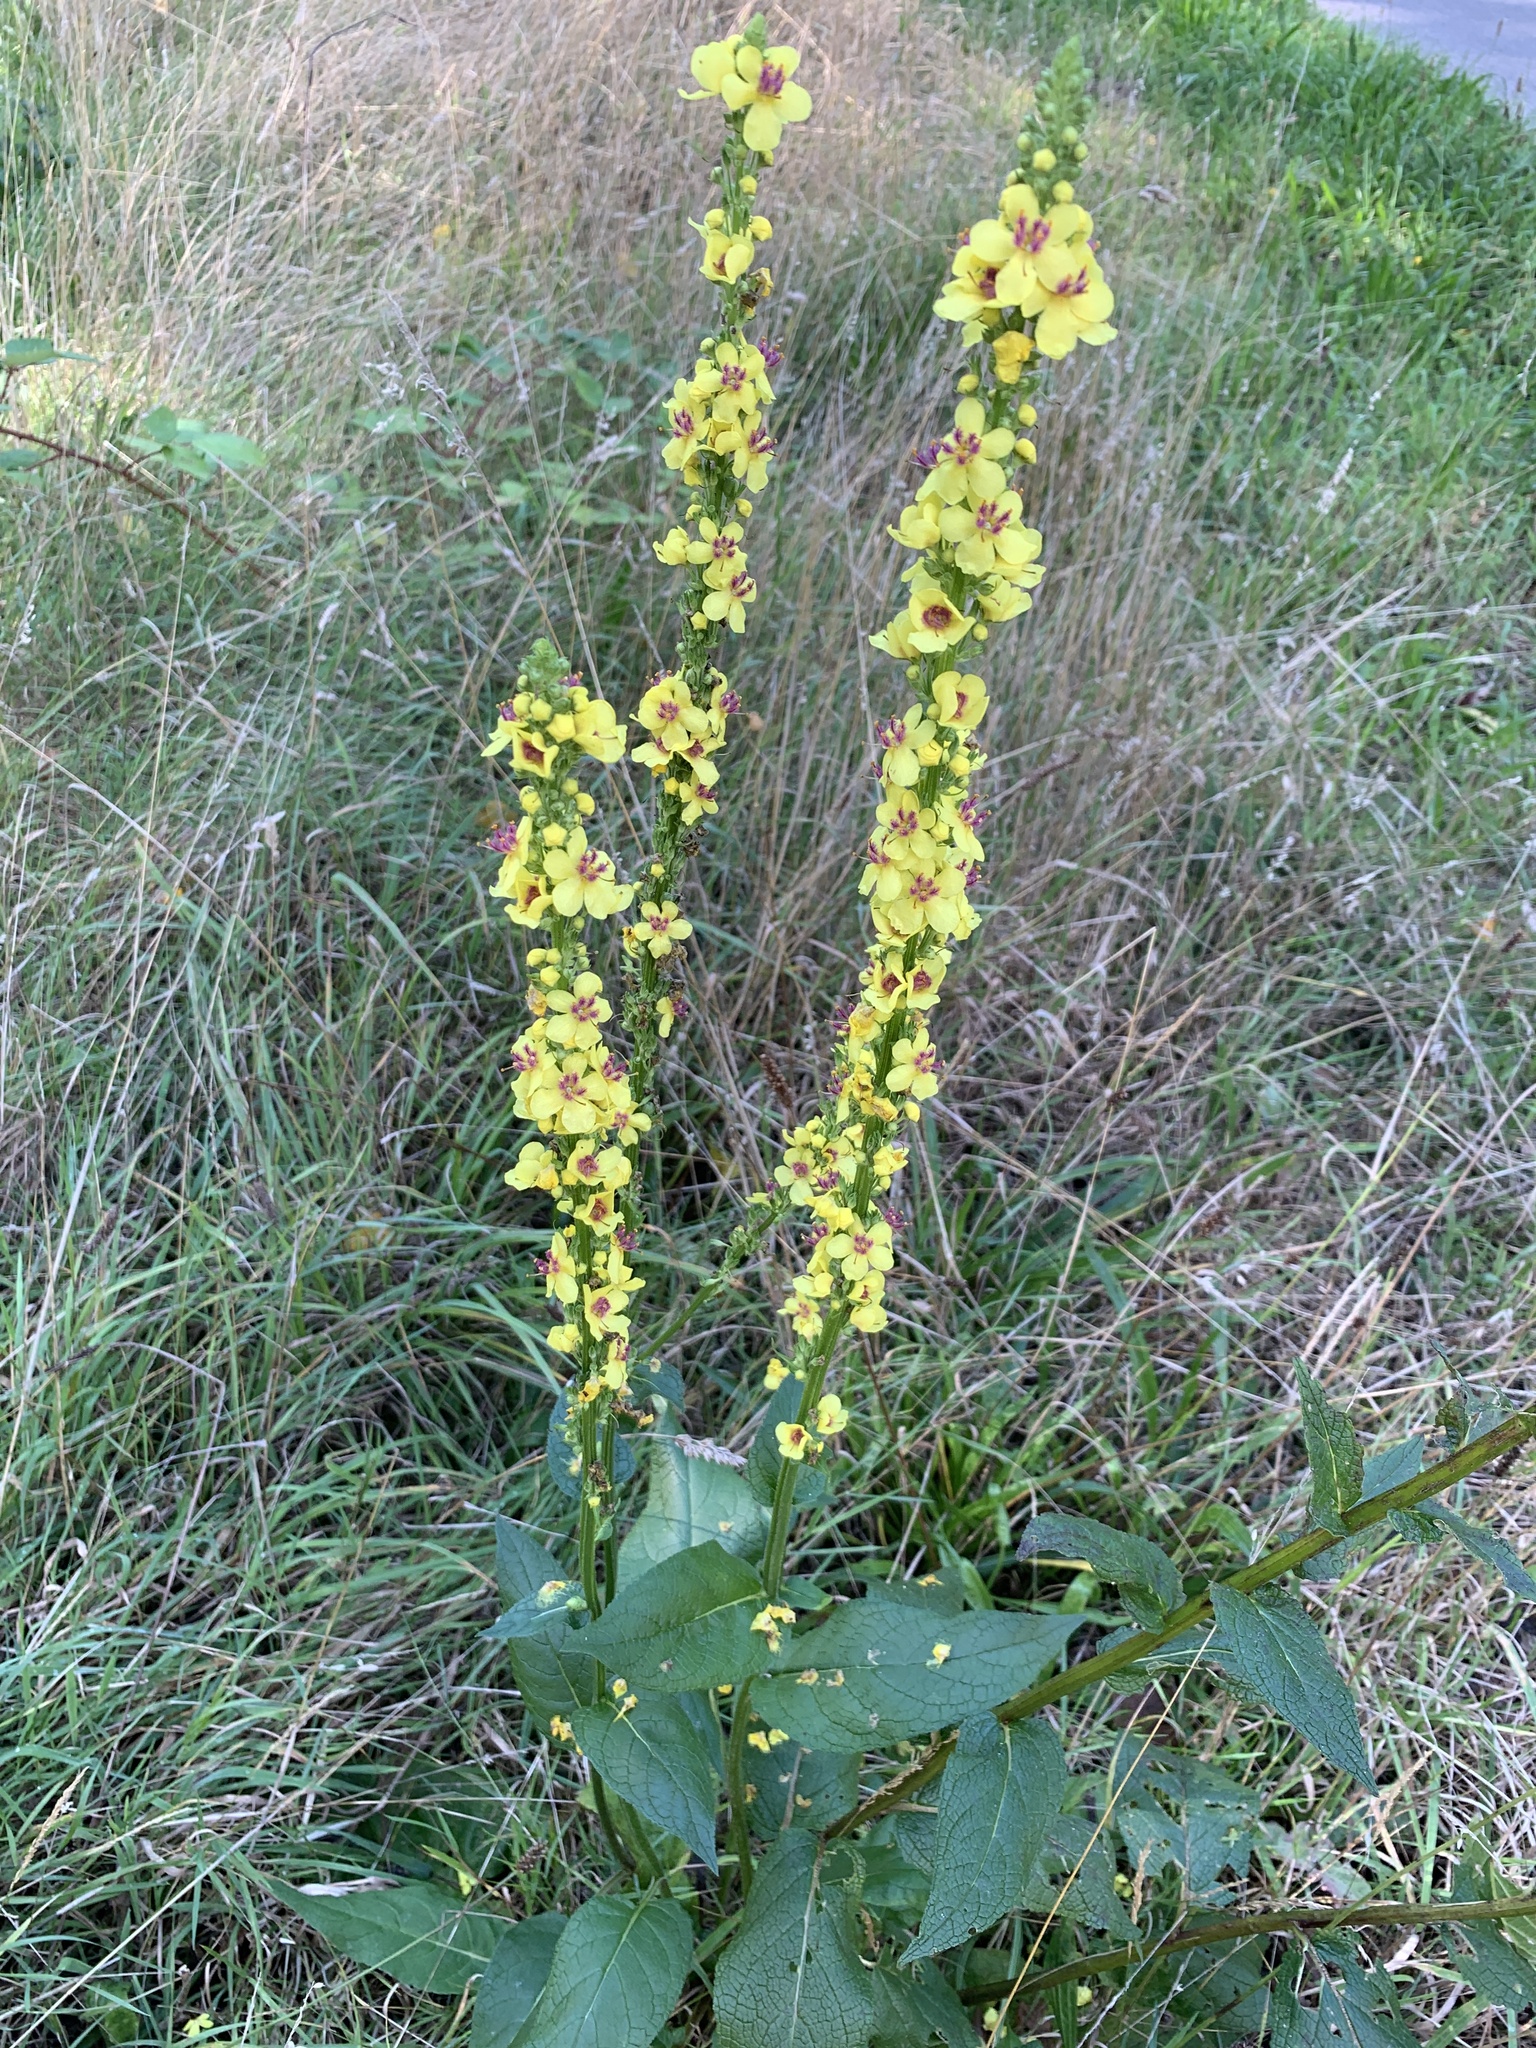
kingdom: Plantae
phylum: Tracheophyta
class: Magnoliopsida
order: Lamiales
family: Scrophulariaceae
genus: Verbascum
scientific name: Verbascum nigrum
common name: Dark mullein
